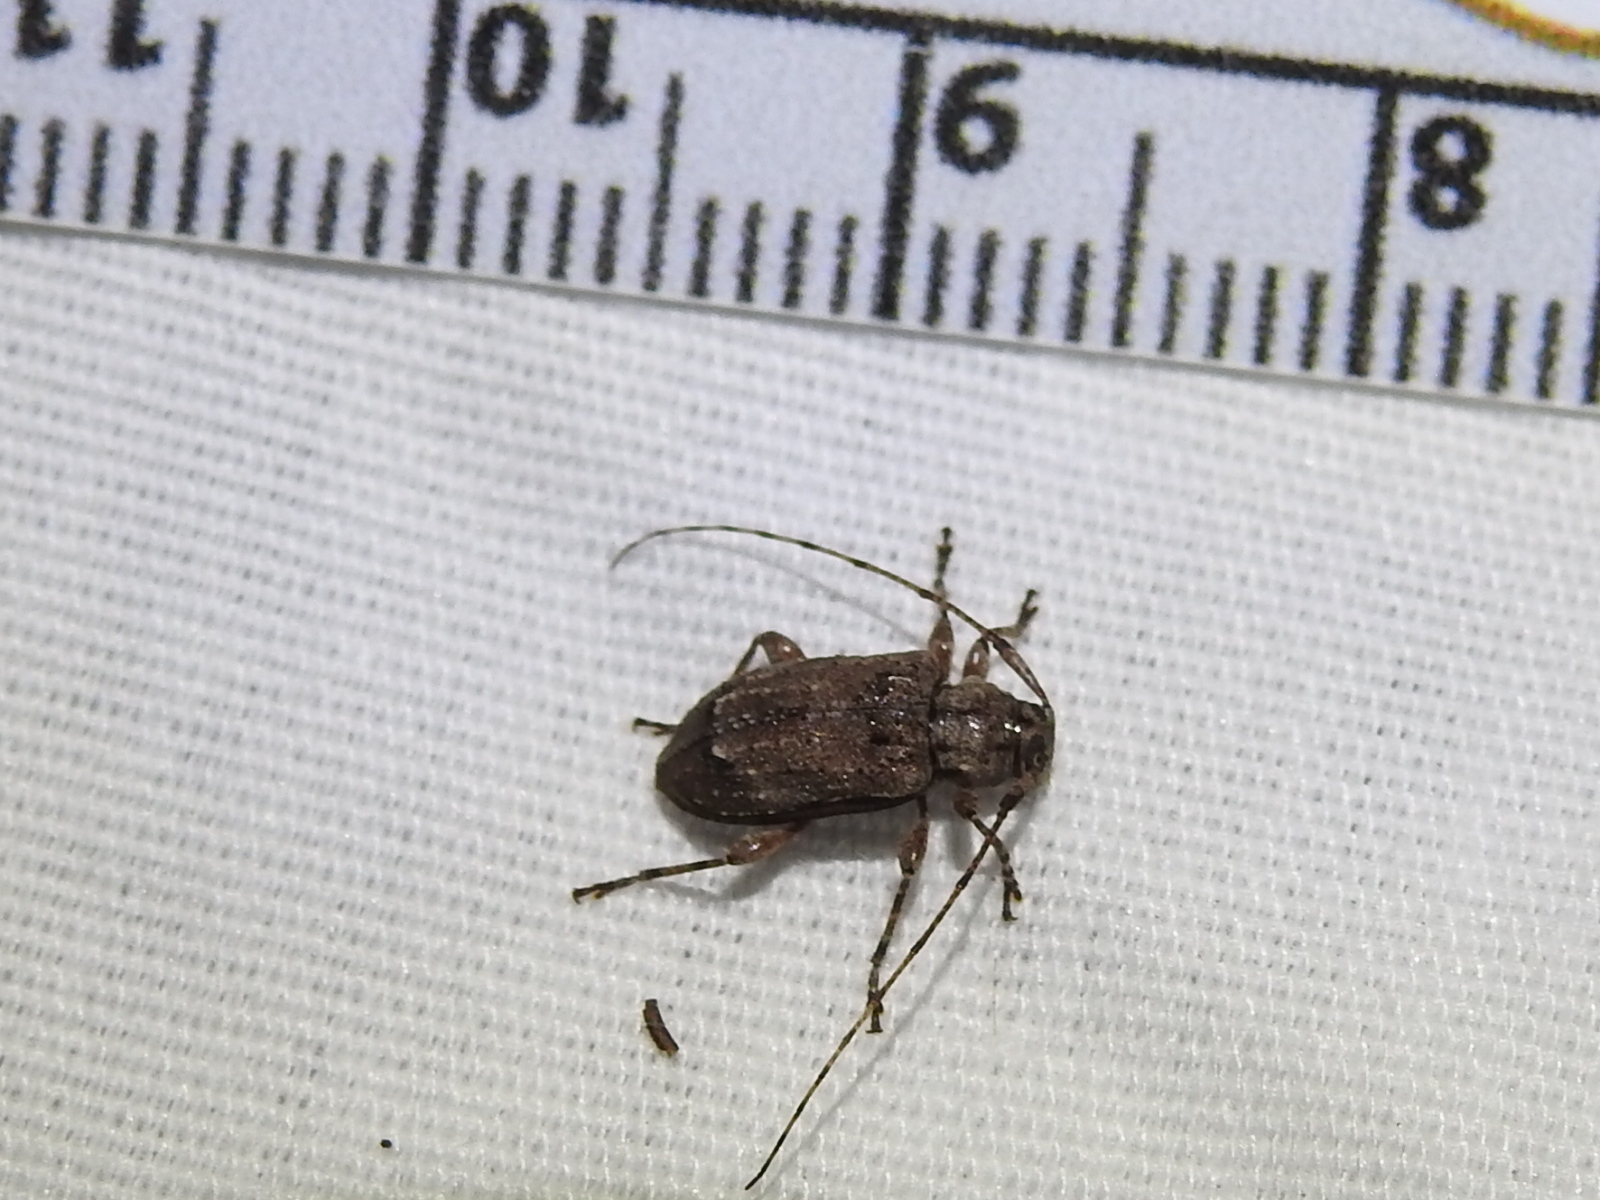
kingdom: Animalia
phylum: Arthropoda
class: Insecta
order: Coleoptera
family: Cerambycidae
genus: Astylopsis
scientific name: Astylopsis sexguttata
